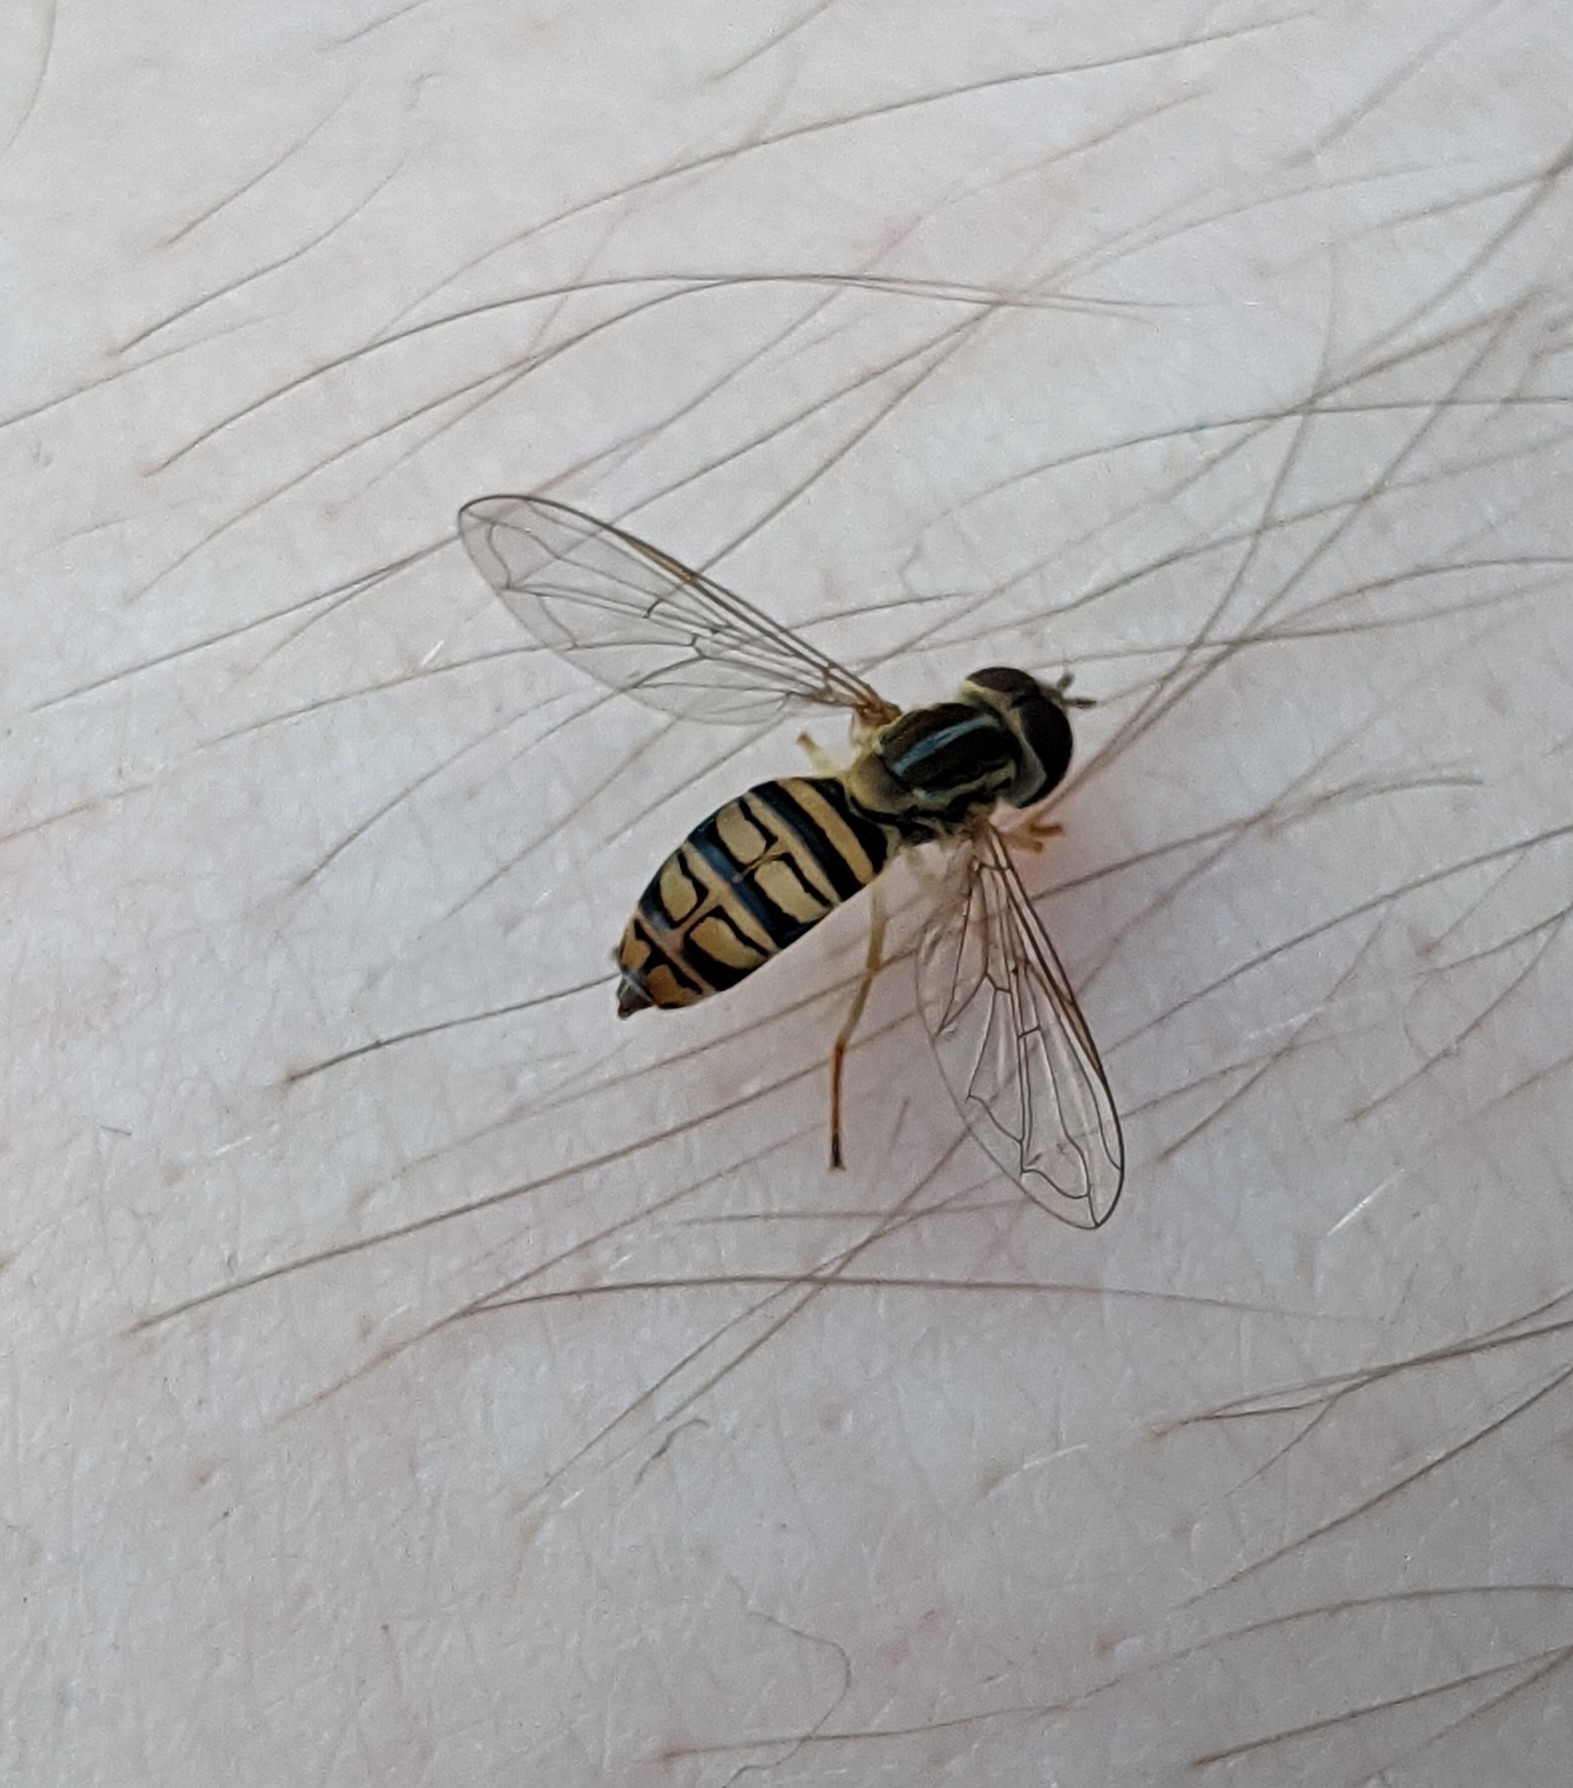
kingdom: Animalia
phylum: Arthropoda
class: Insecta
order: Diptera
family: Syrphidae
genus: Toxomerus
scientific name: Toxomerus politus
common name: Maize calligrapher
